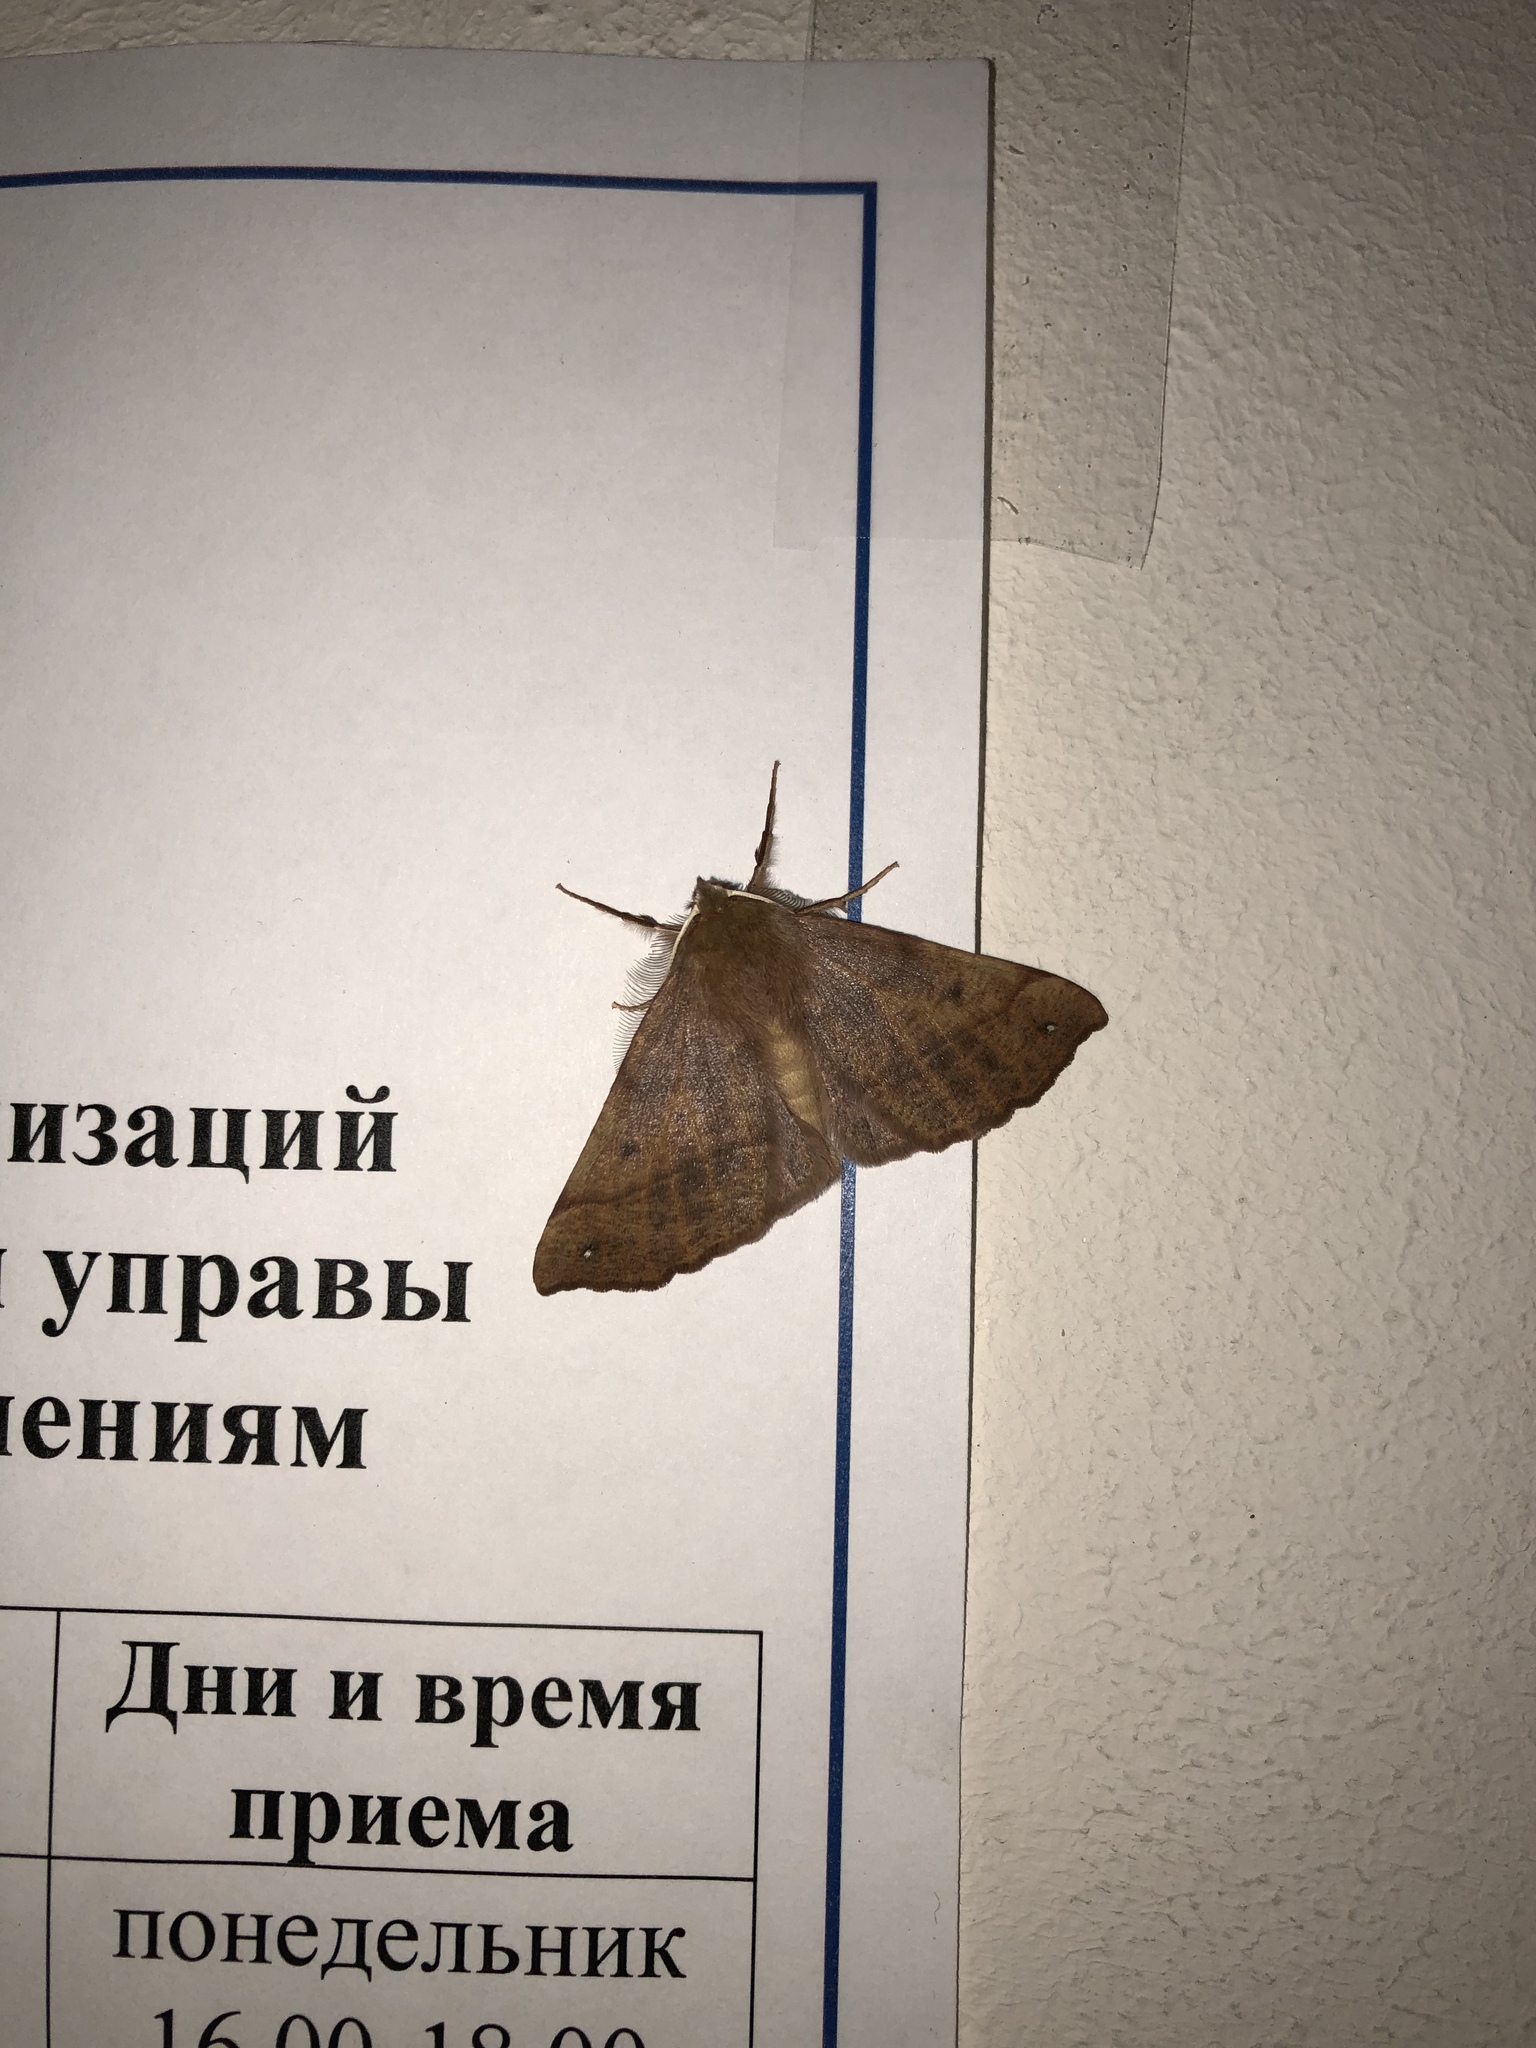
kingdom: Animalia
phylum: Arthropoda
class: Insecta
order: Lepidoptera
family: Geometridae
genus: Colotois
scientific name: Colotois pennaria
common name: Feathered thorn
